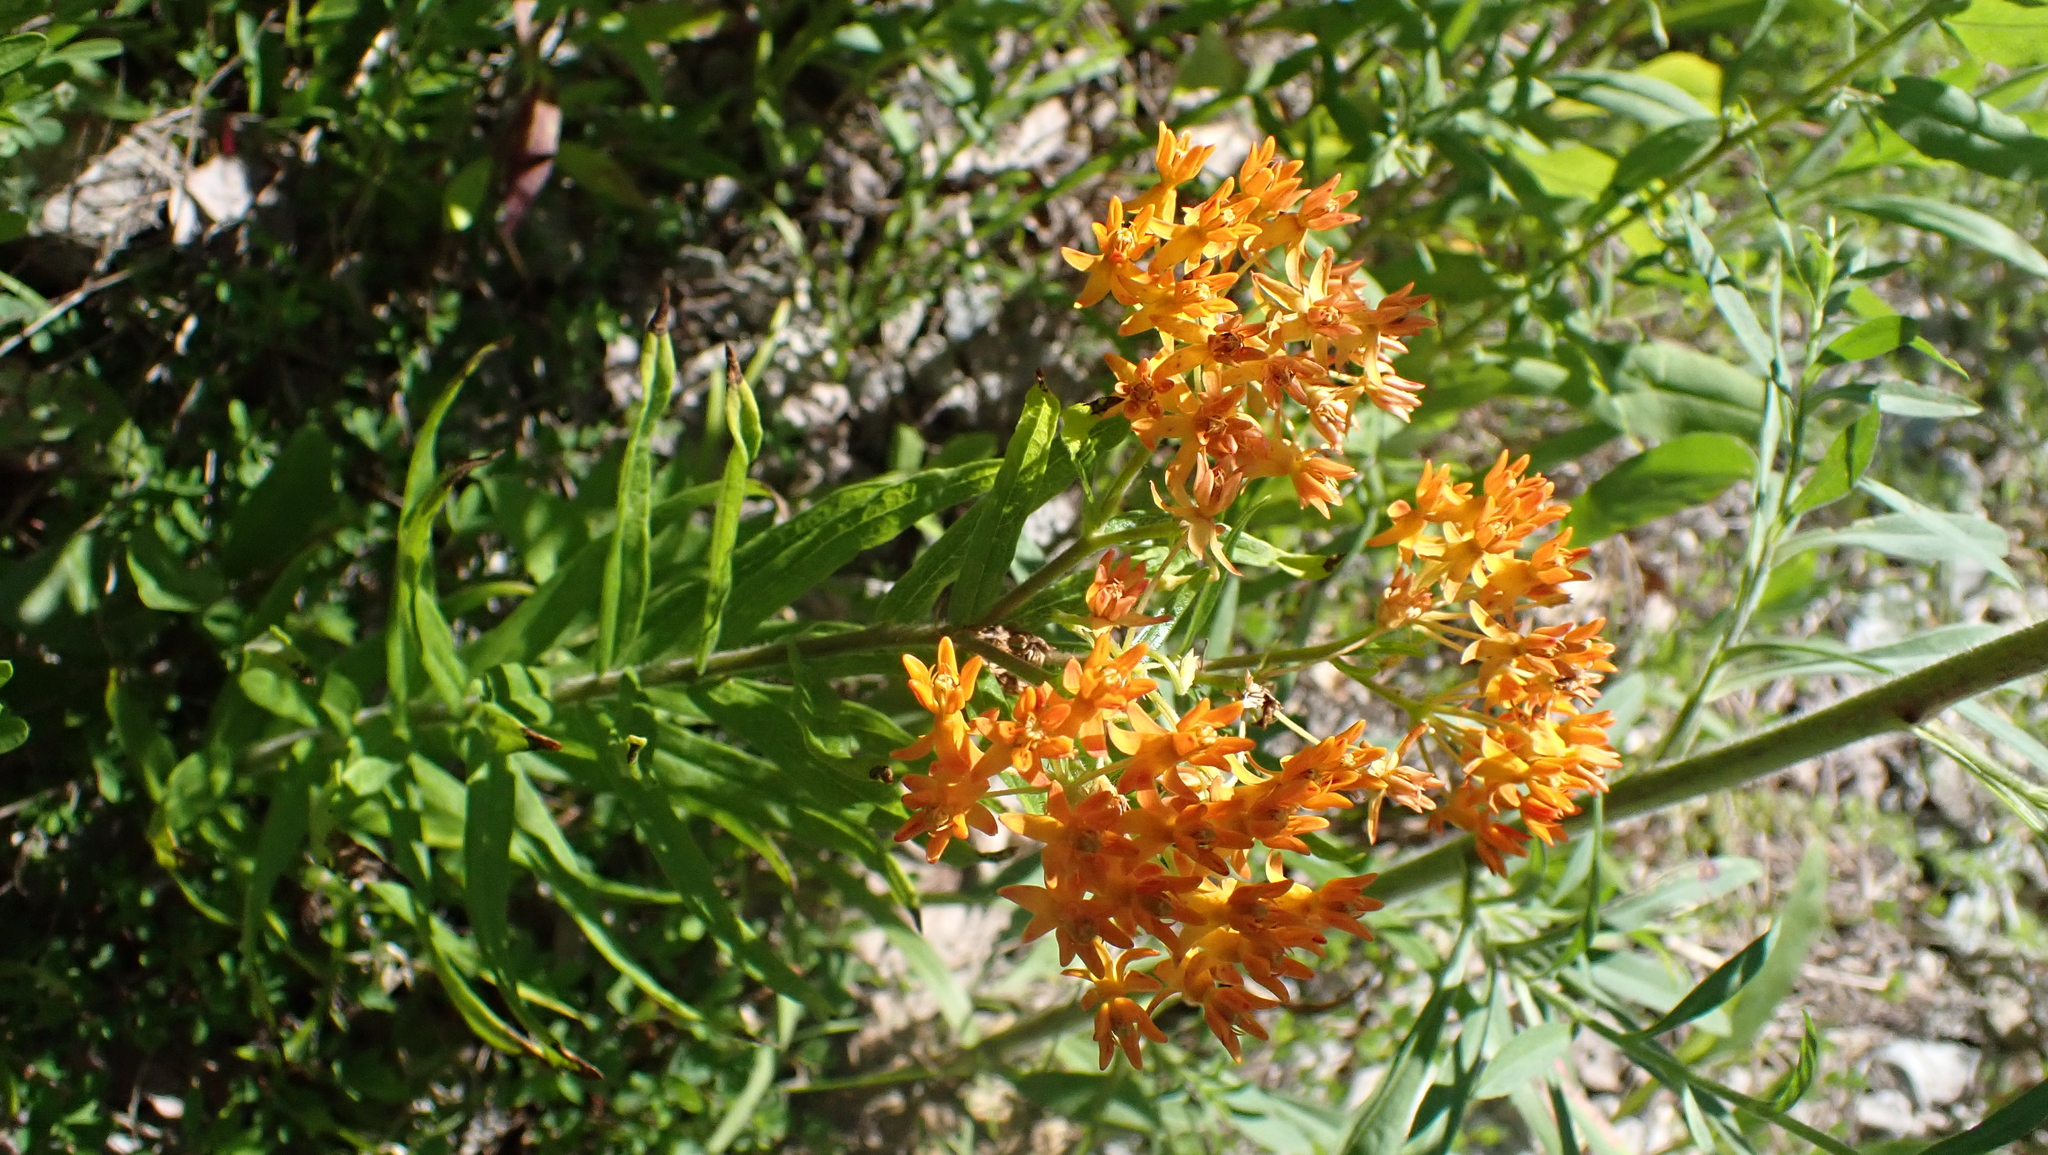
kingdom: Plantae
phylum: Tracheophyta
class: Magnoliopsida
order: Gentianales
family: Apocynaceae
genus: Asclepias
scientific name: Asclepias tuberosa
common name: Butterfly milkweed
